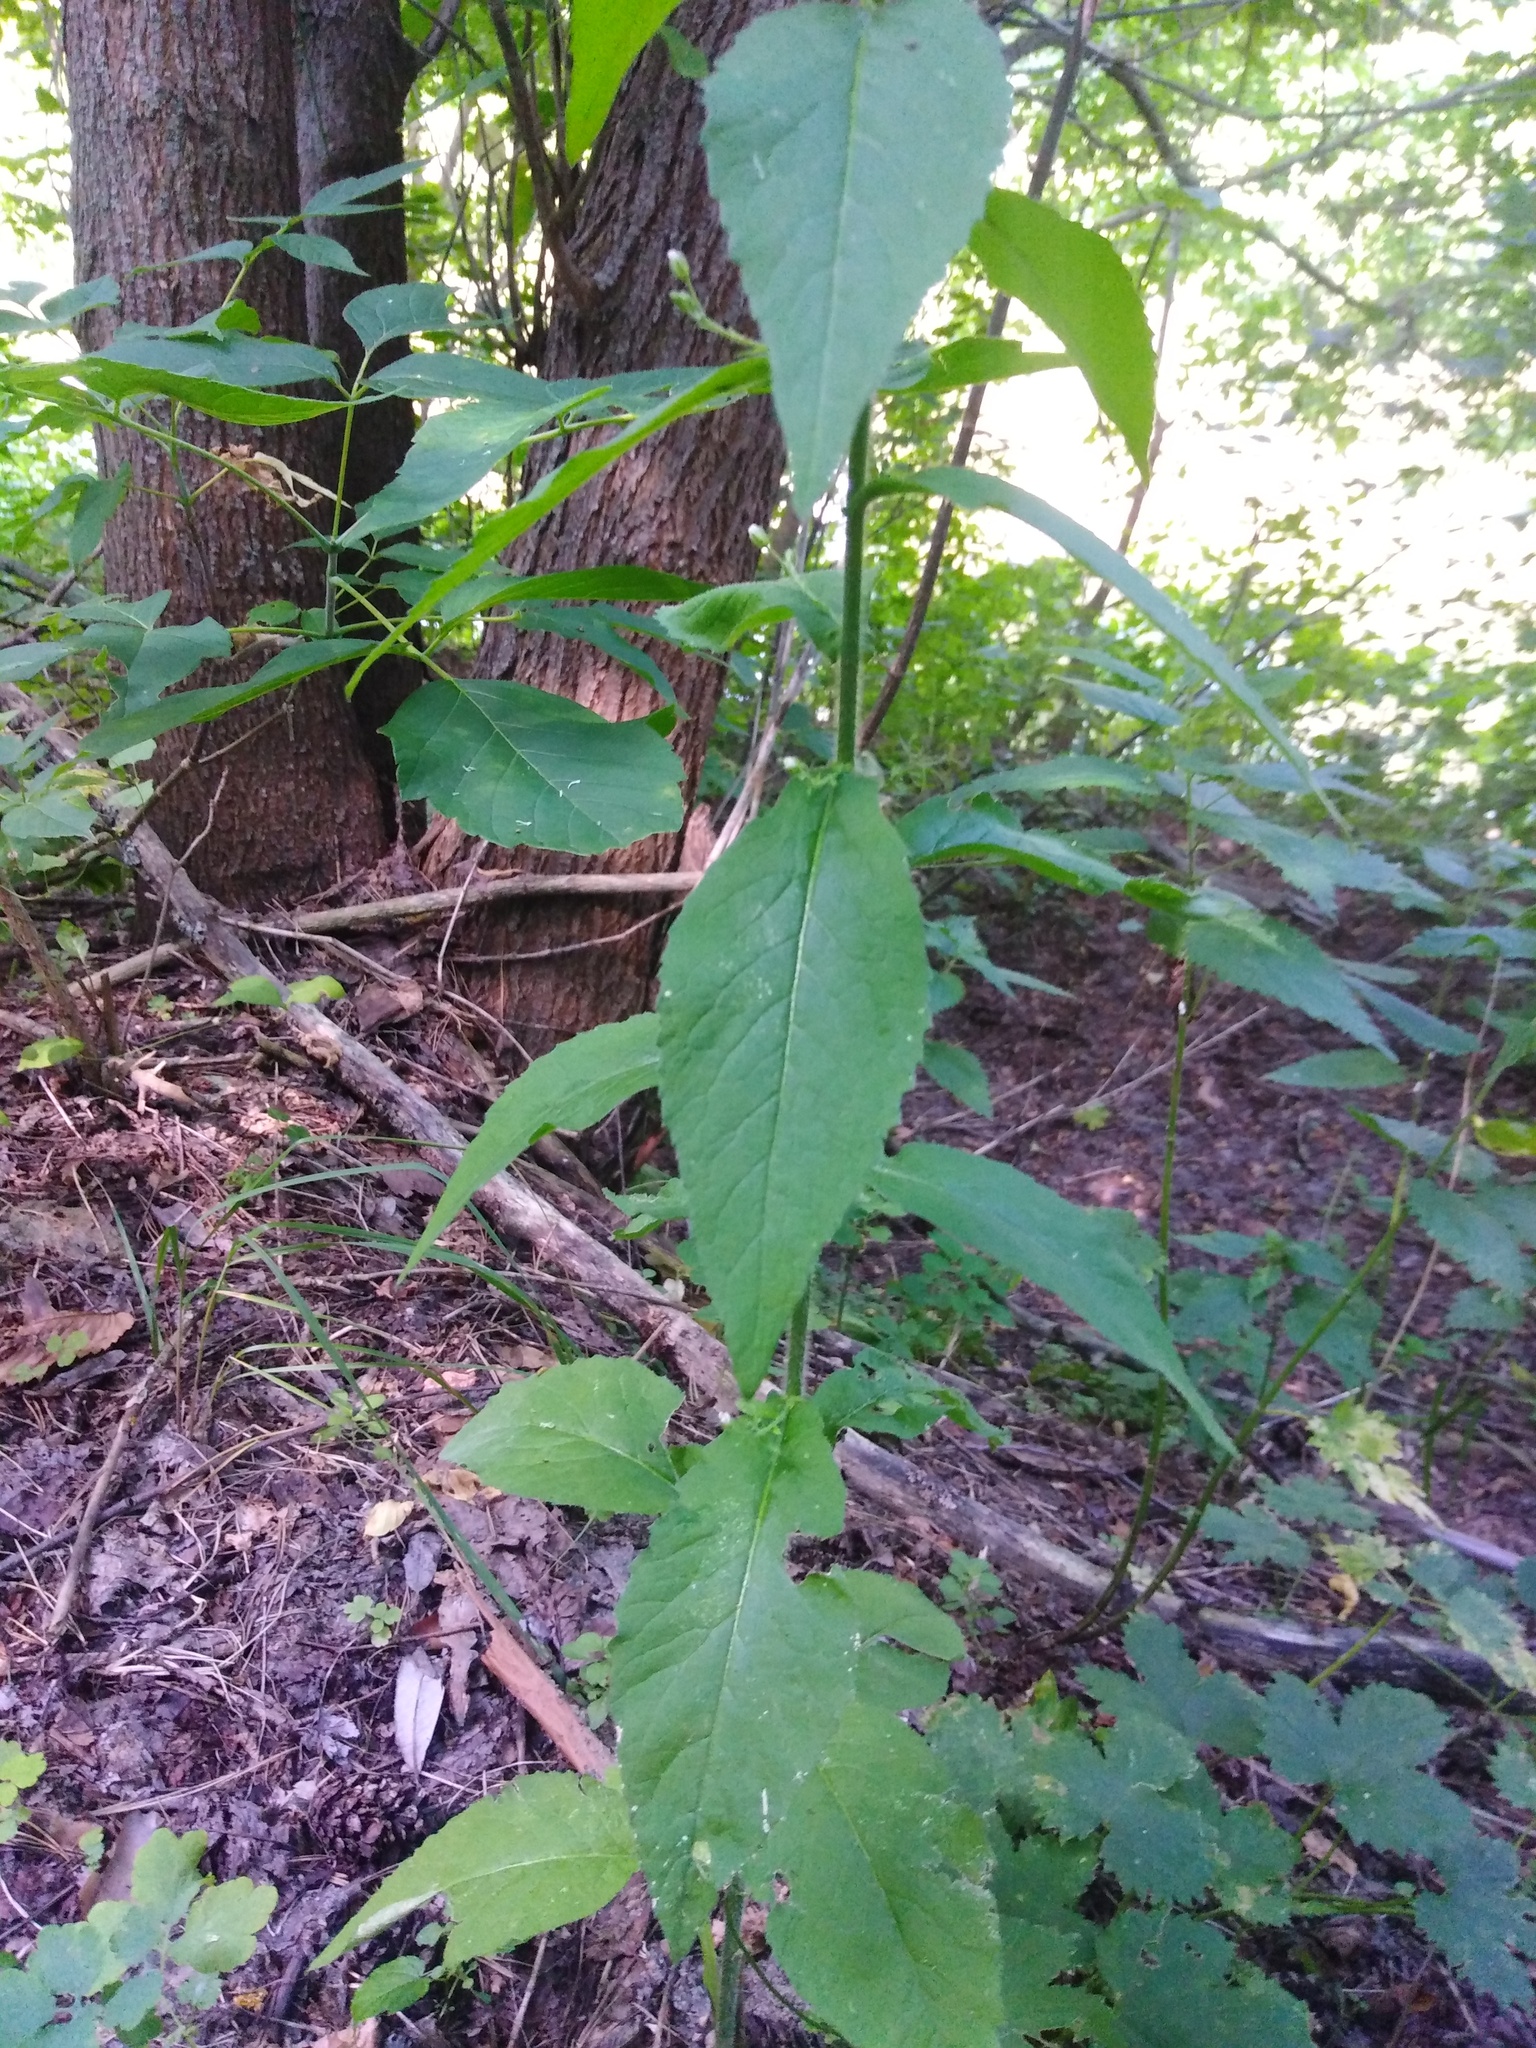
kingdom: Plantae
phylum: Tracheophyta
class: Magnoliopsida
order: Brassicales
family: Brassicaceae
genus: Catolobus
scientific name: Catolobus pendulus
